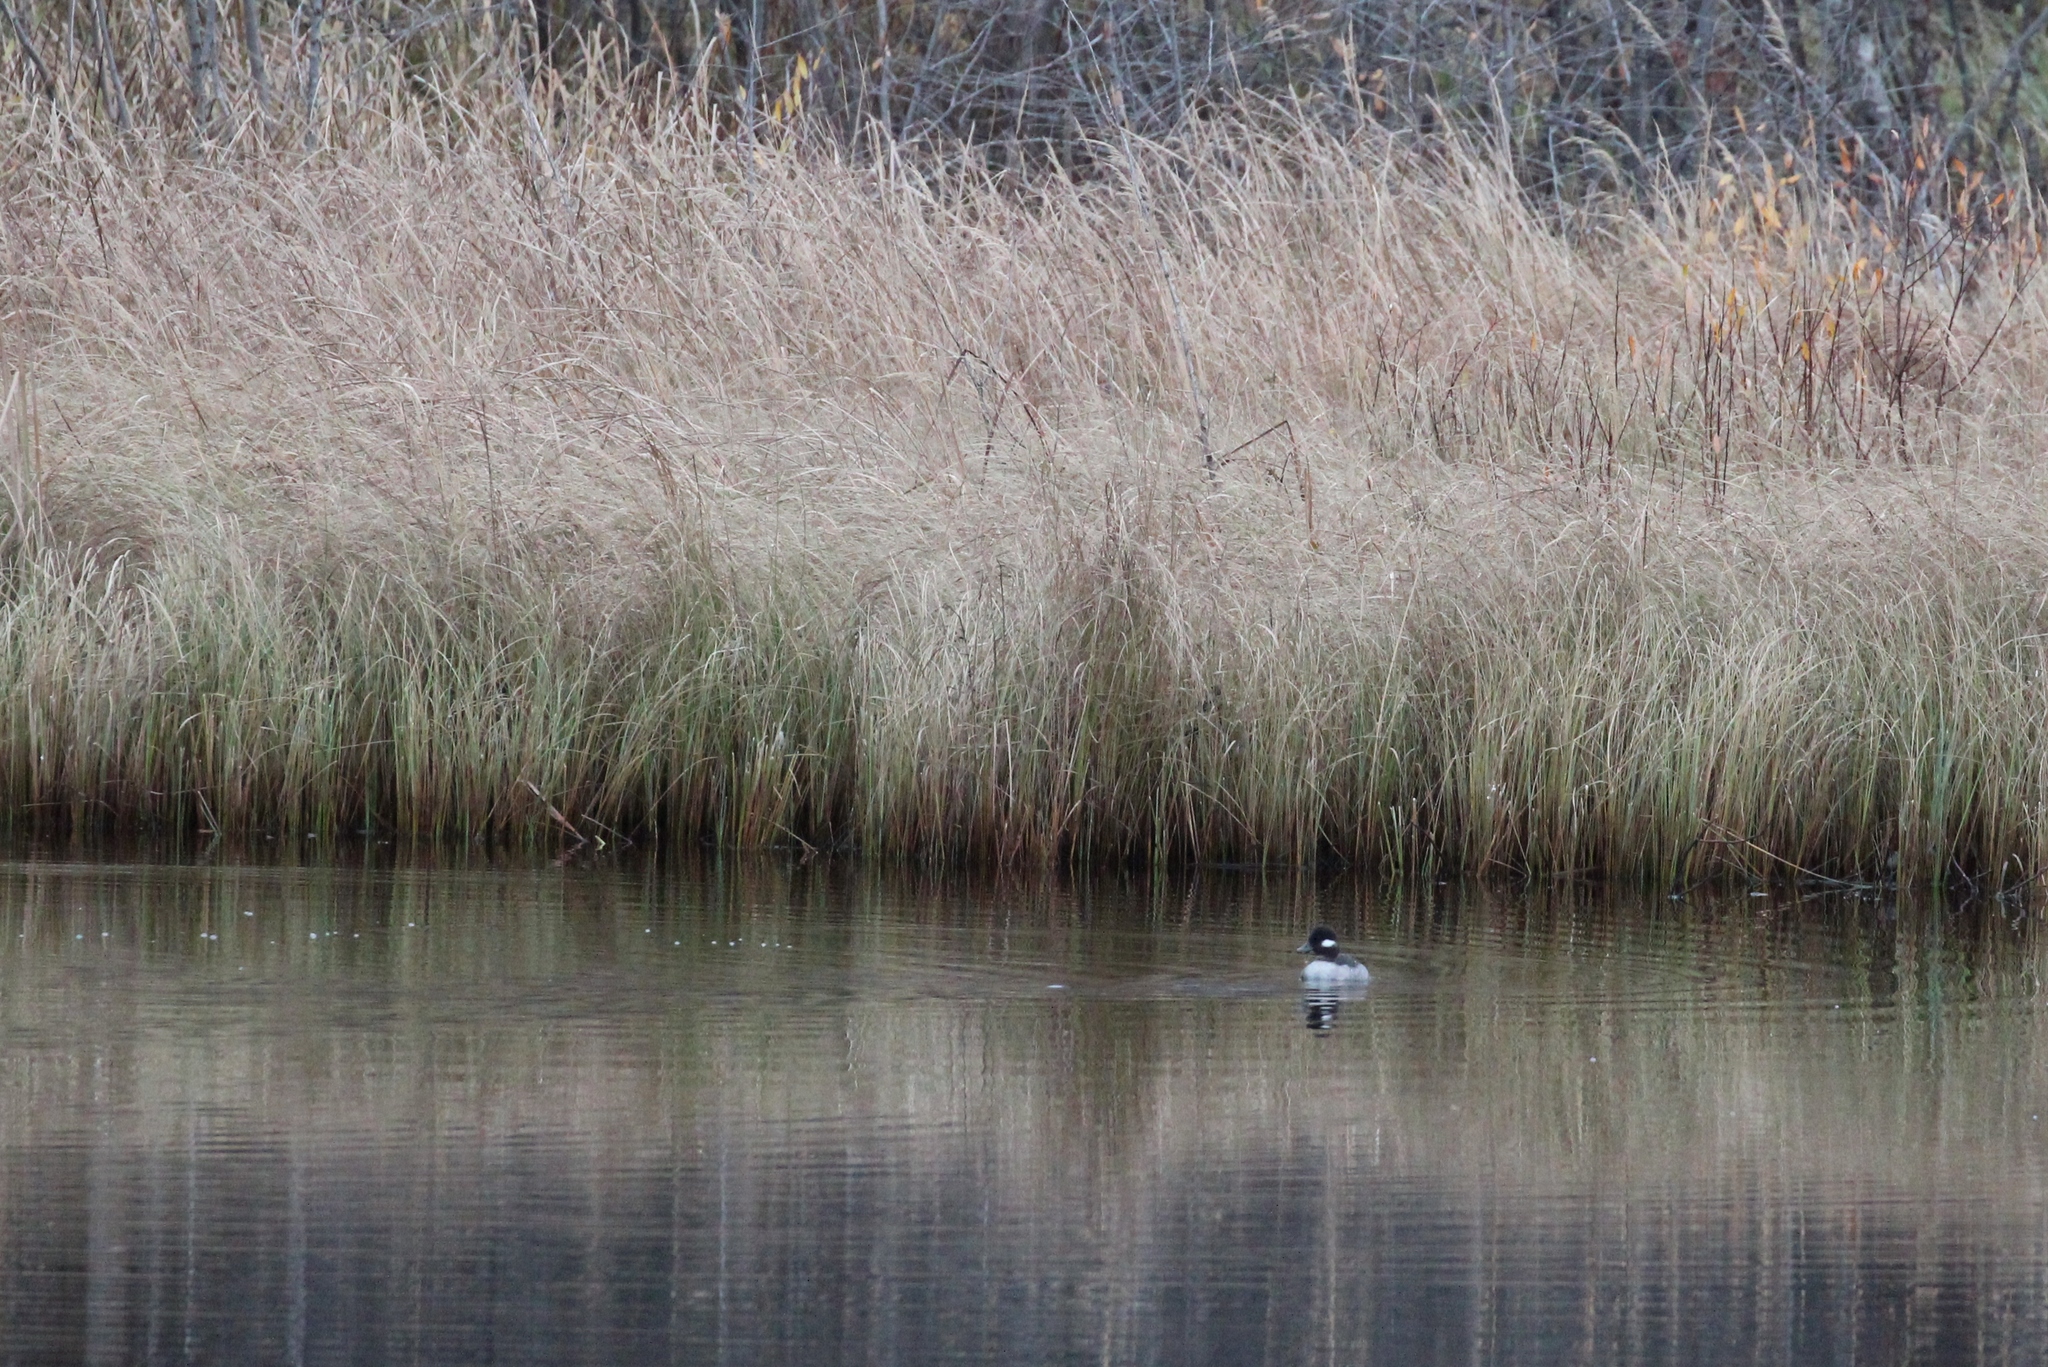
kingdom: Animalia
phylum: Chordata
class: Aves
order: Anseriformes
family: Anatidae
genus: Bucephala
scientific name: Bucephala albeola
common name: Bufflehead
